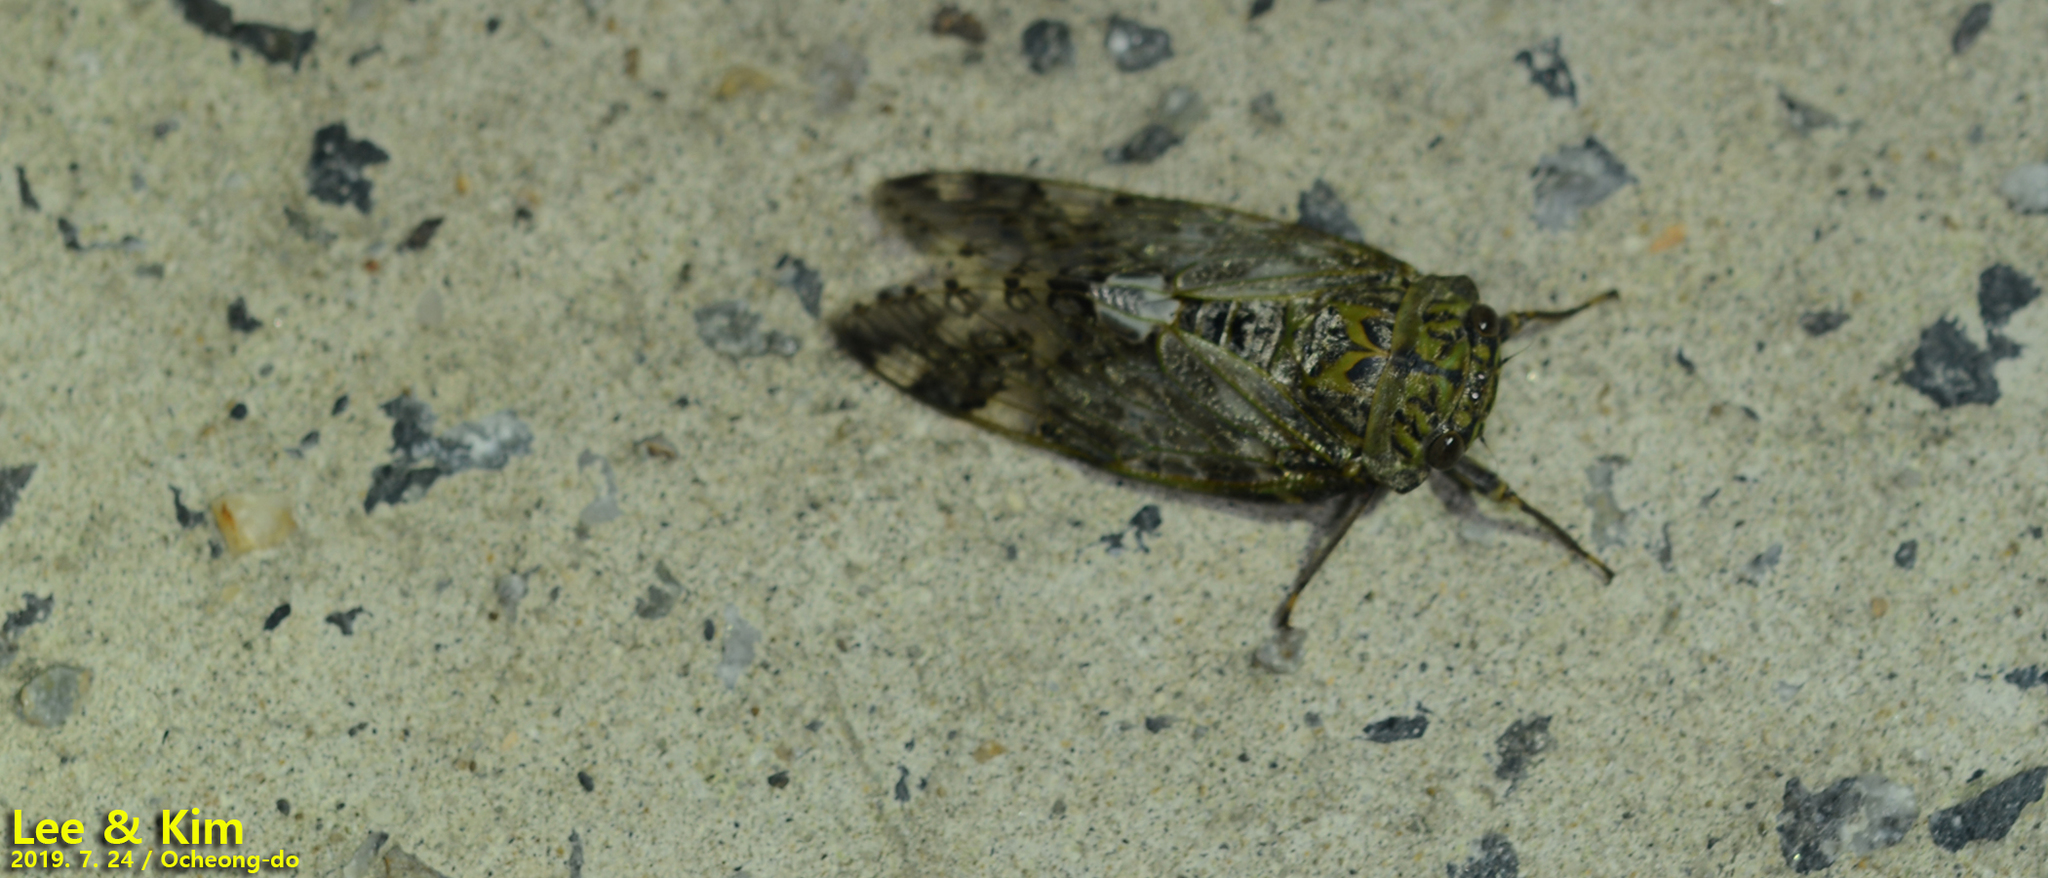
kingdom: Animalia
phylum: Arthropoda
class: Insecta
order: Hemiptera
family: Cicadidae
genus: Platypleura
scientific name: Platypleura kaempferi
